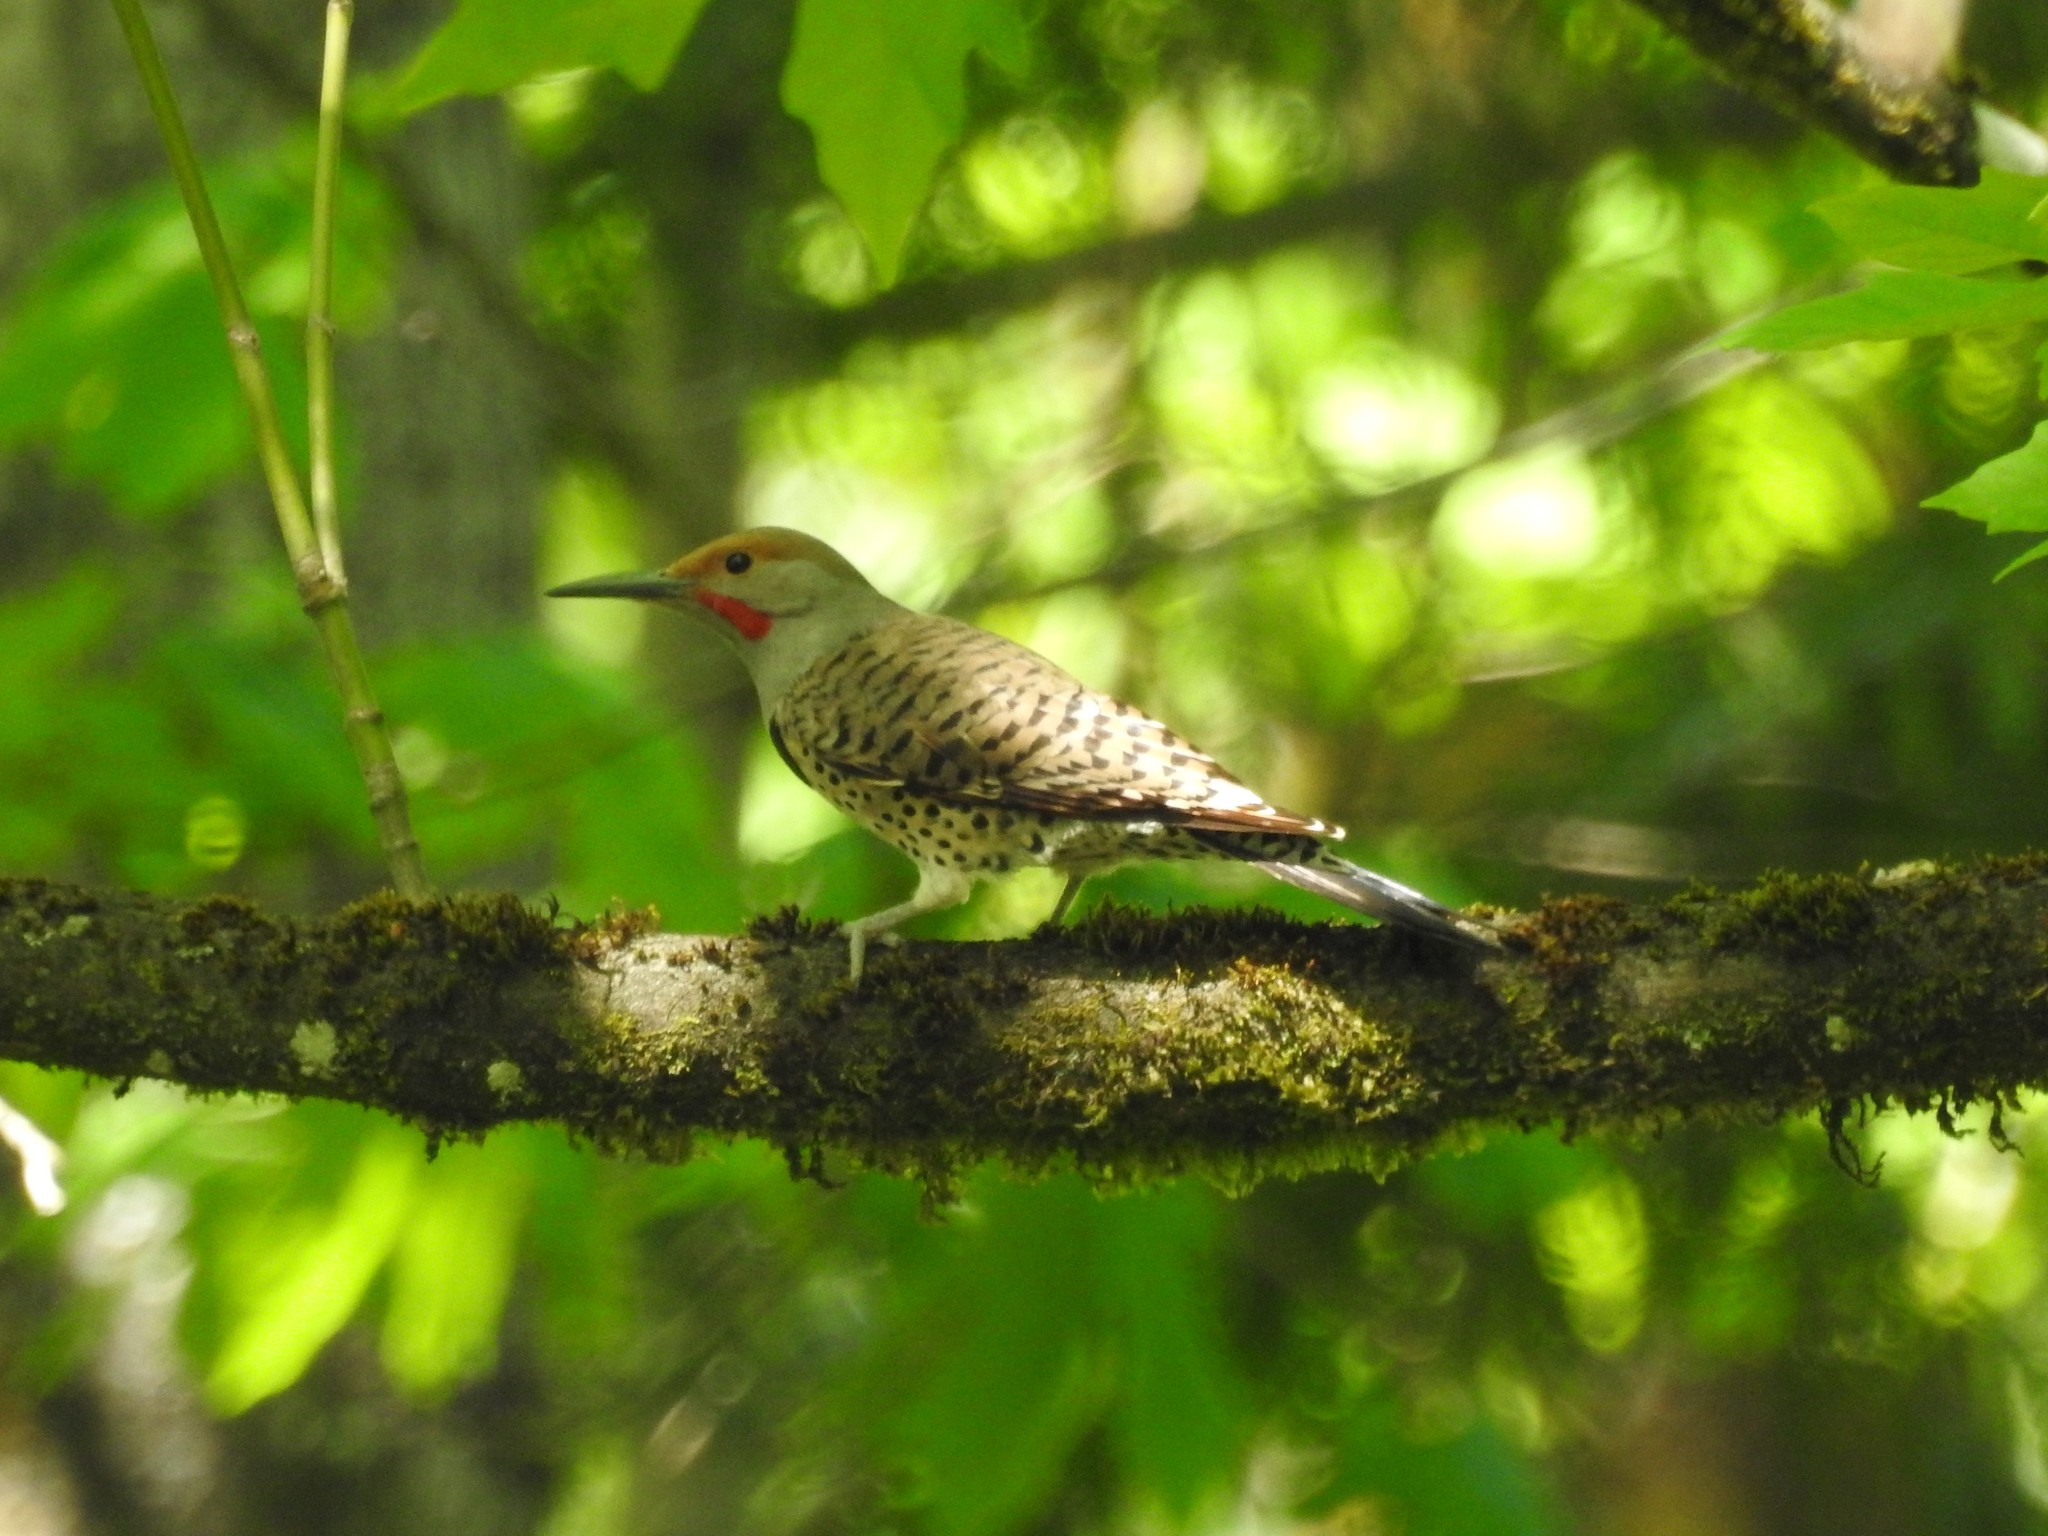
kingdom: Animalia
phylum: Chordata
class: Aves
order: Piciformes
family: Picidae
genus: Colaptes
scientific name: Colaptes auratus
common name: Northern flicker
